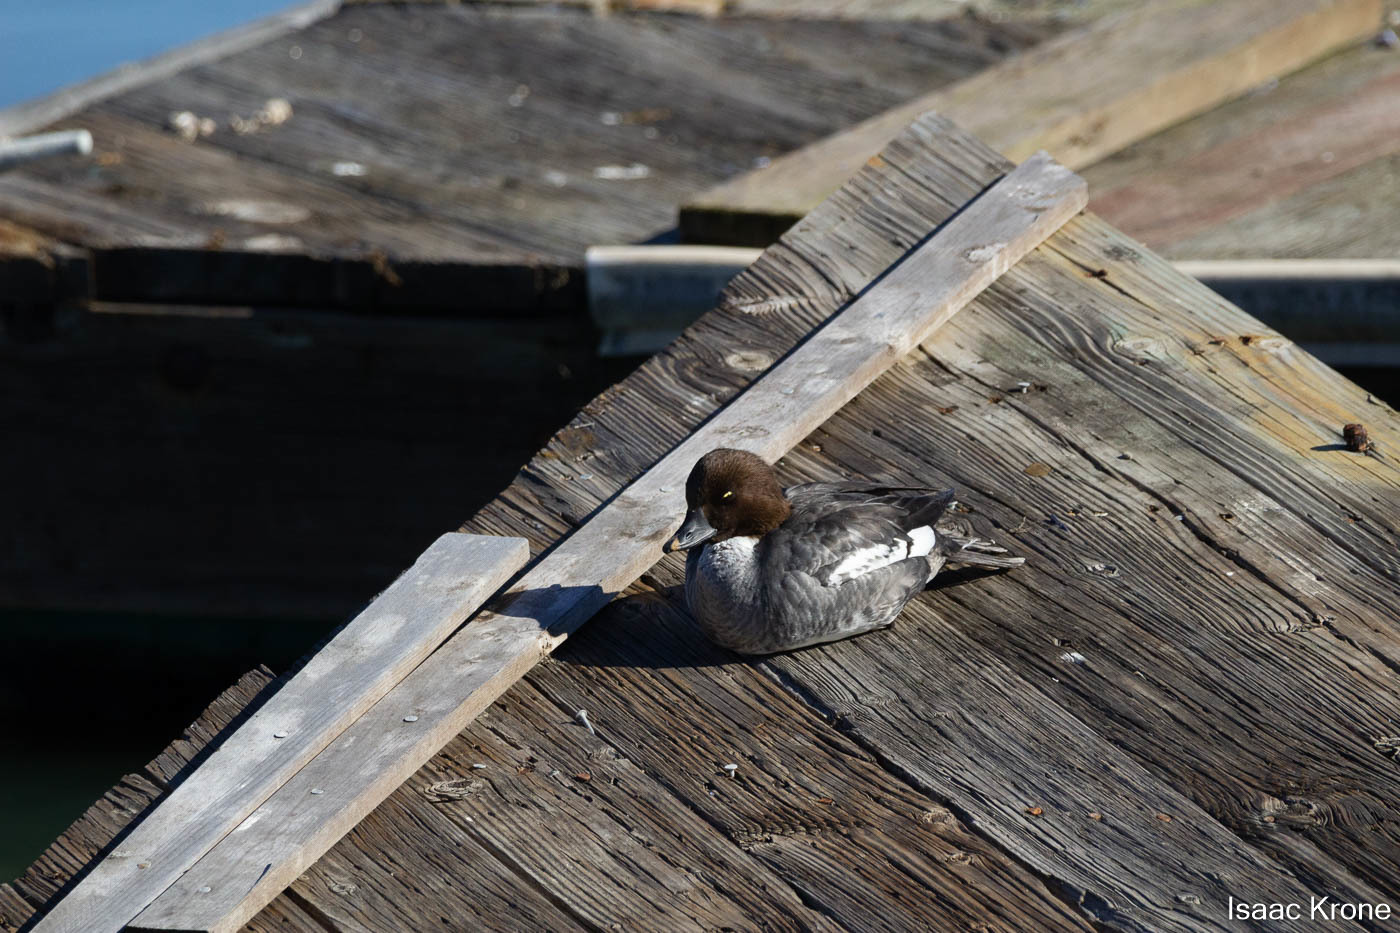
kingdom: Animalia
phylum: Chordata
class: Aves
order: Anseriformes
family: Anatidae
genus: Bucephala
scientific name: Bucephala clangula
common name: Common goldeneye
